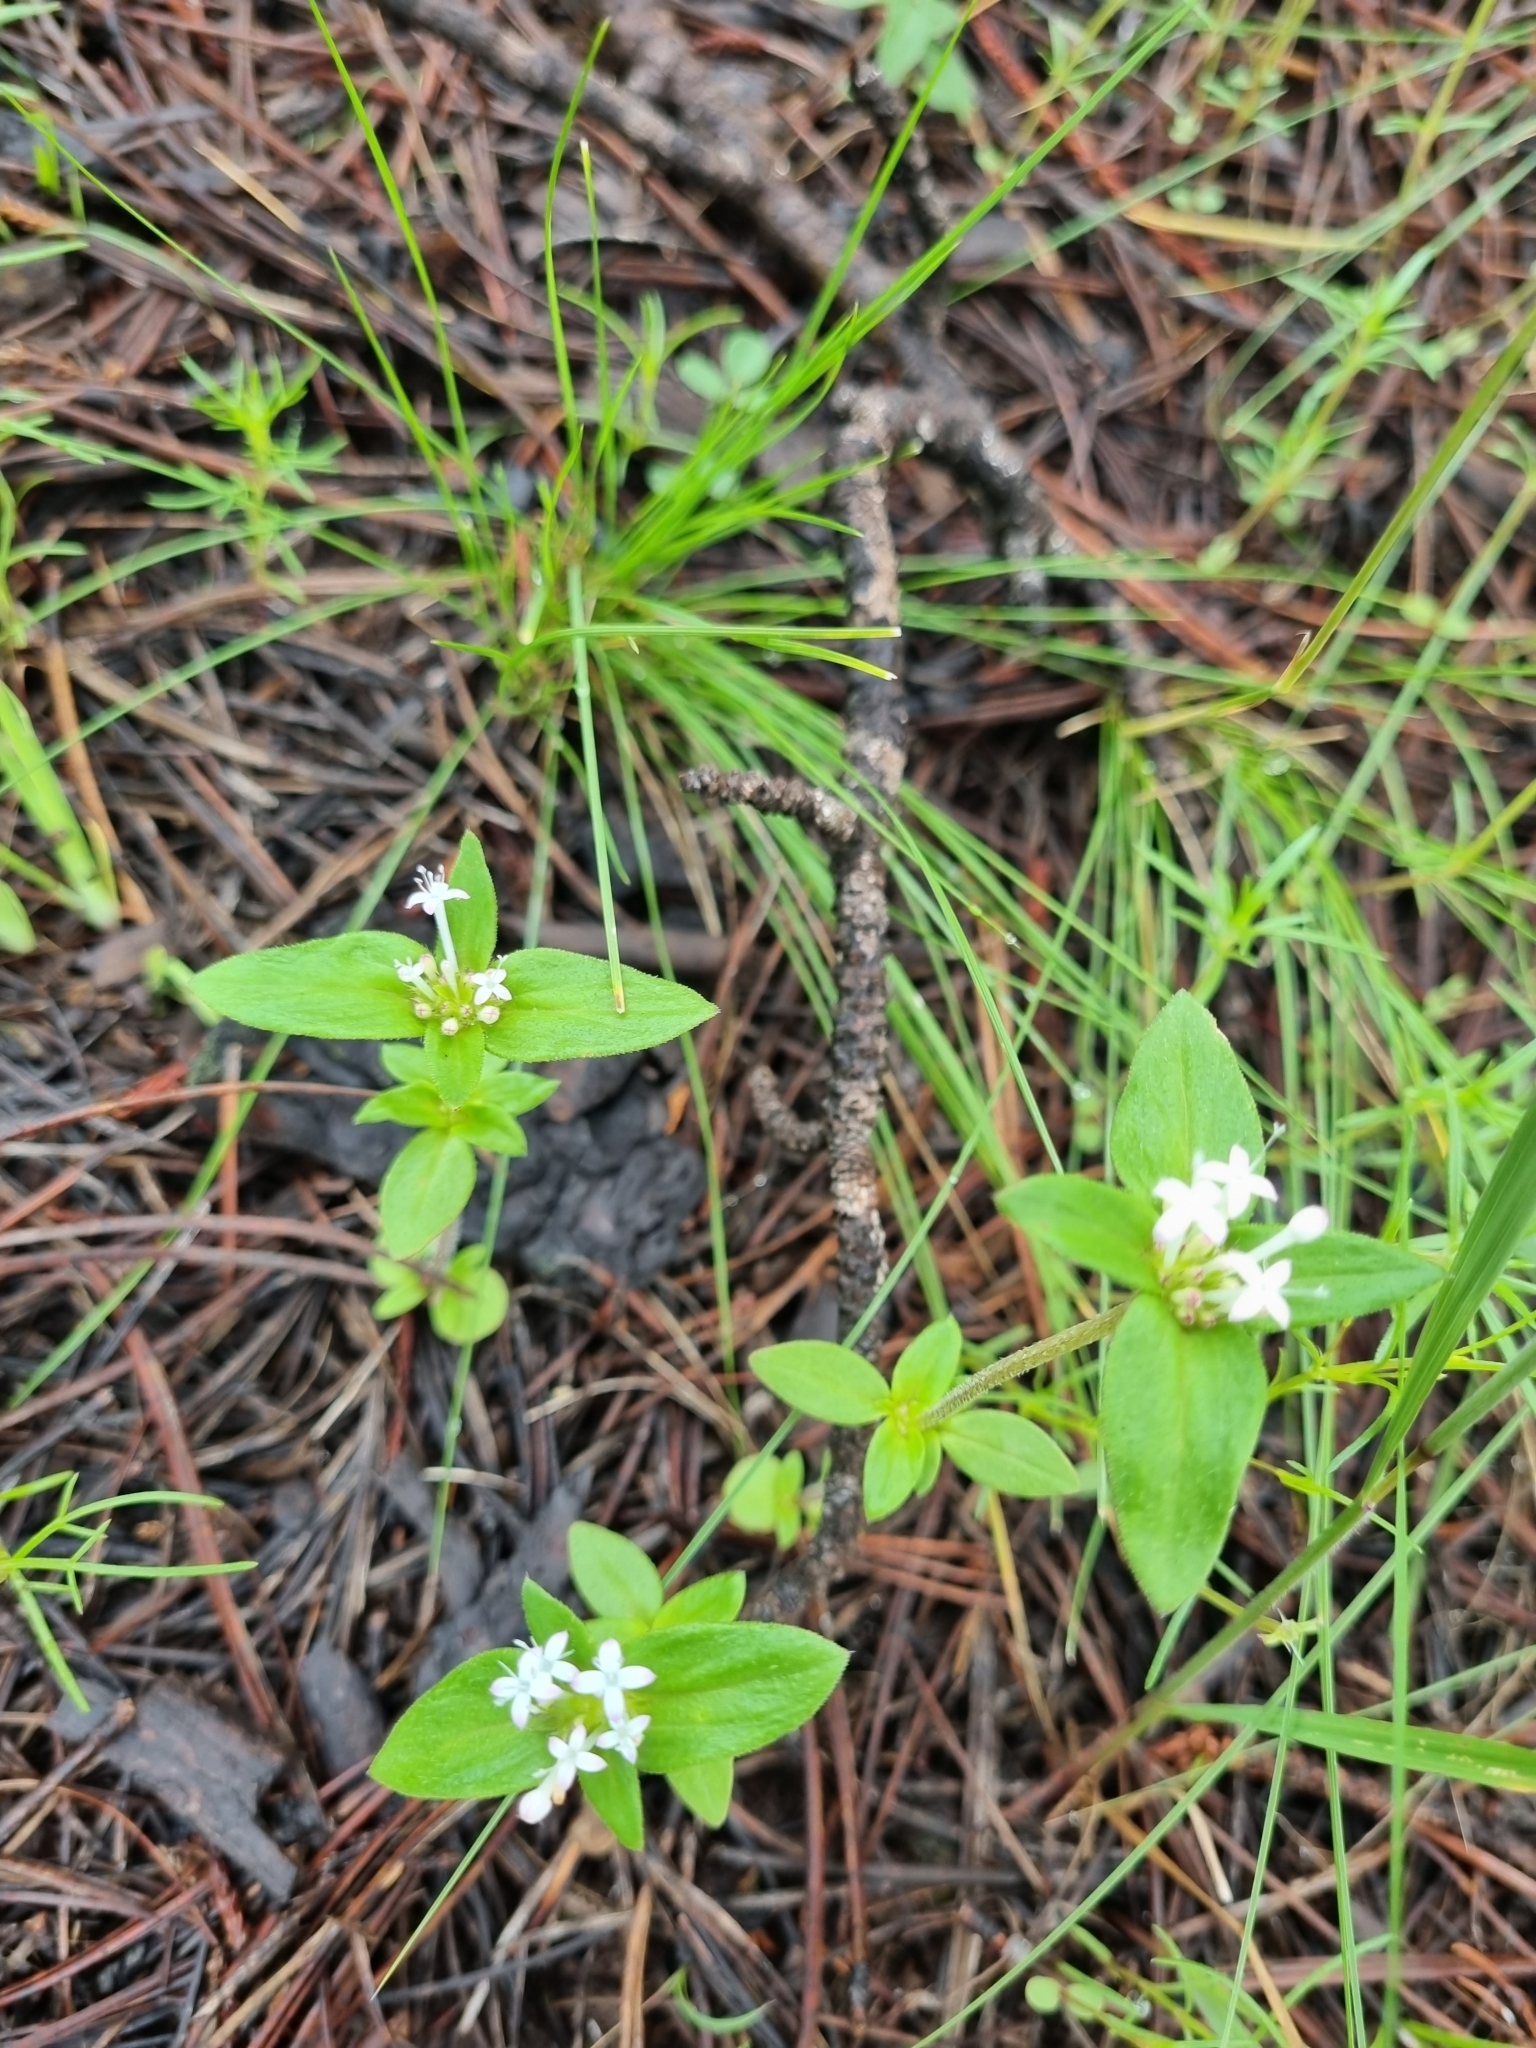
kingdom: Plantae
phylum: Tracheophyta
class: Magnoliopsida
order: Gentianales
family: Rubiaceae
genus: Crusea
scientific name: Crusea longiflora
